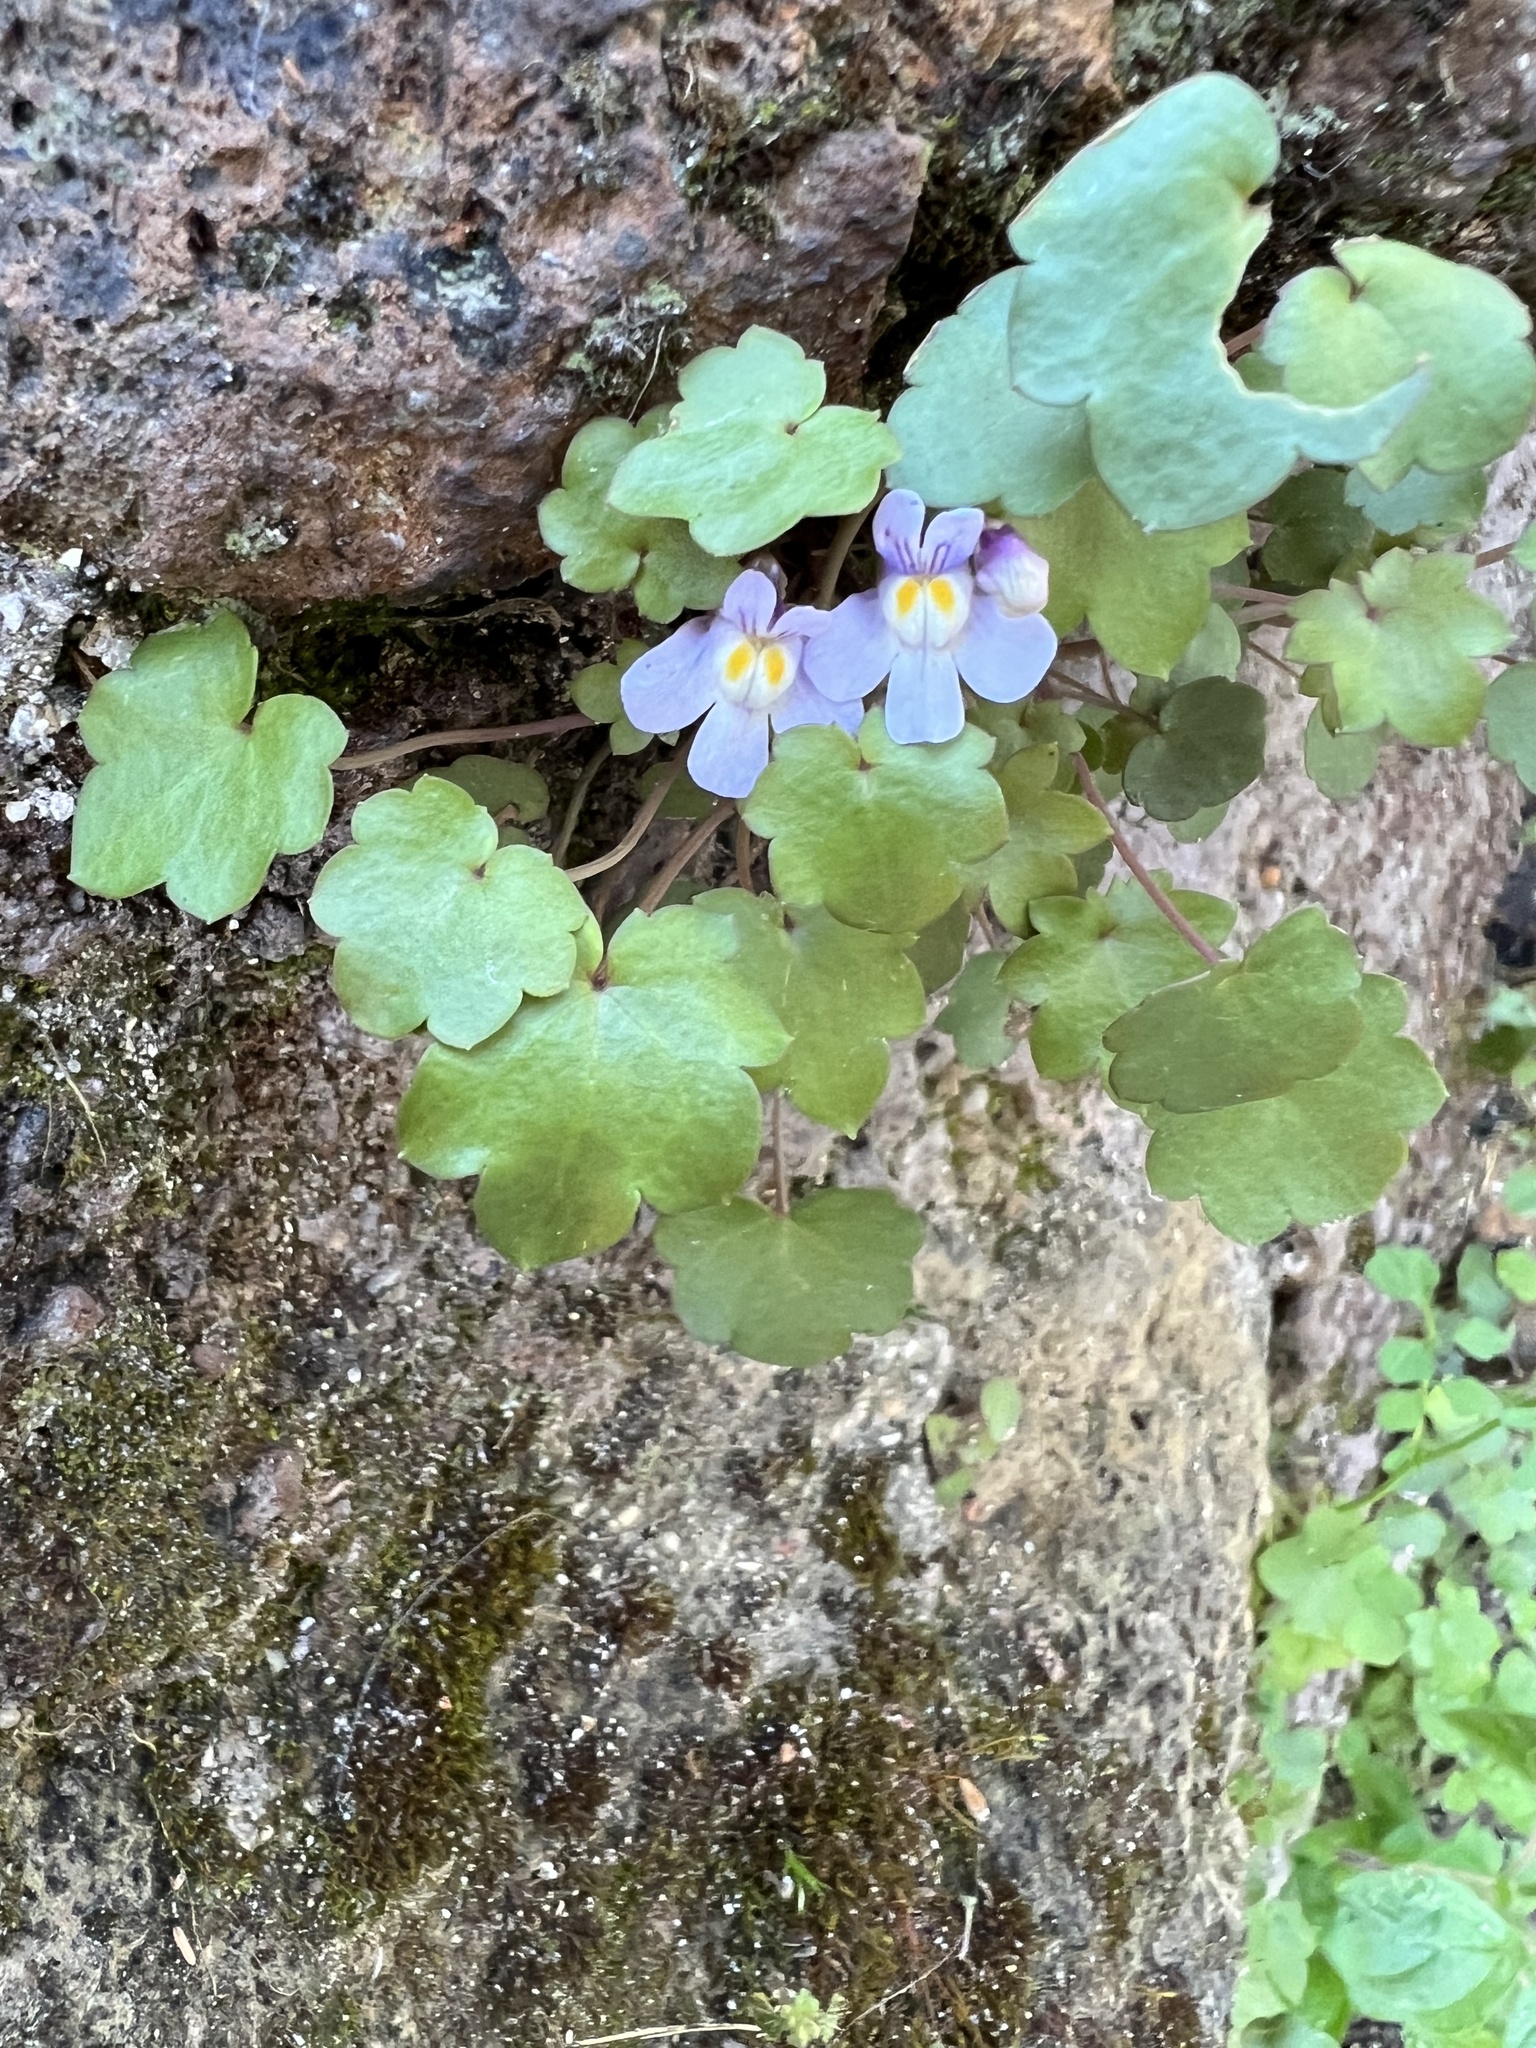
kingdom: Plantae
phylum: Tracheophyta
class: Magnoliopsida
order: Lamiales
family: Plantaginaceae
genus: Cymbalaria
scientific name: Cymbalaria muralis
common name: Ivy-leaved toadflax
